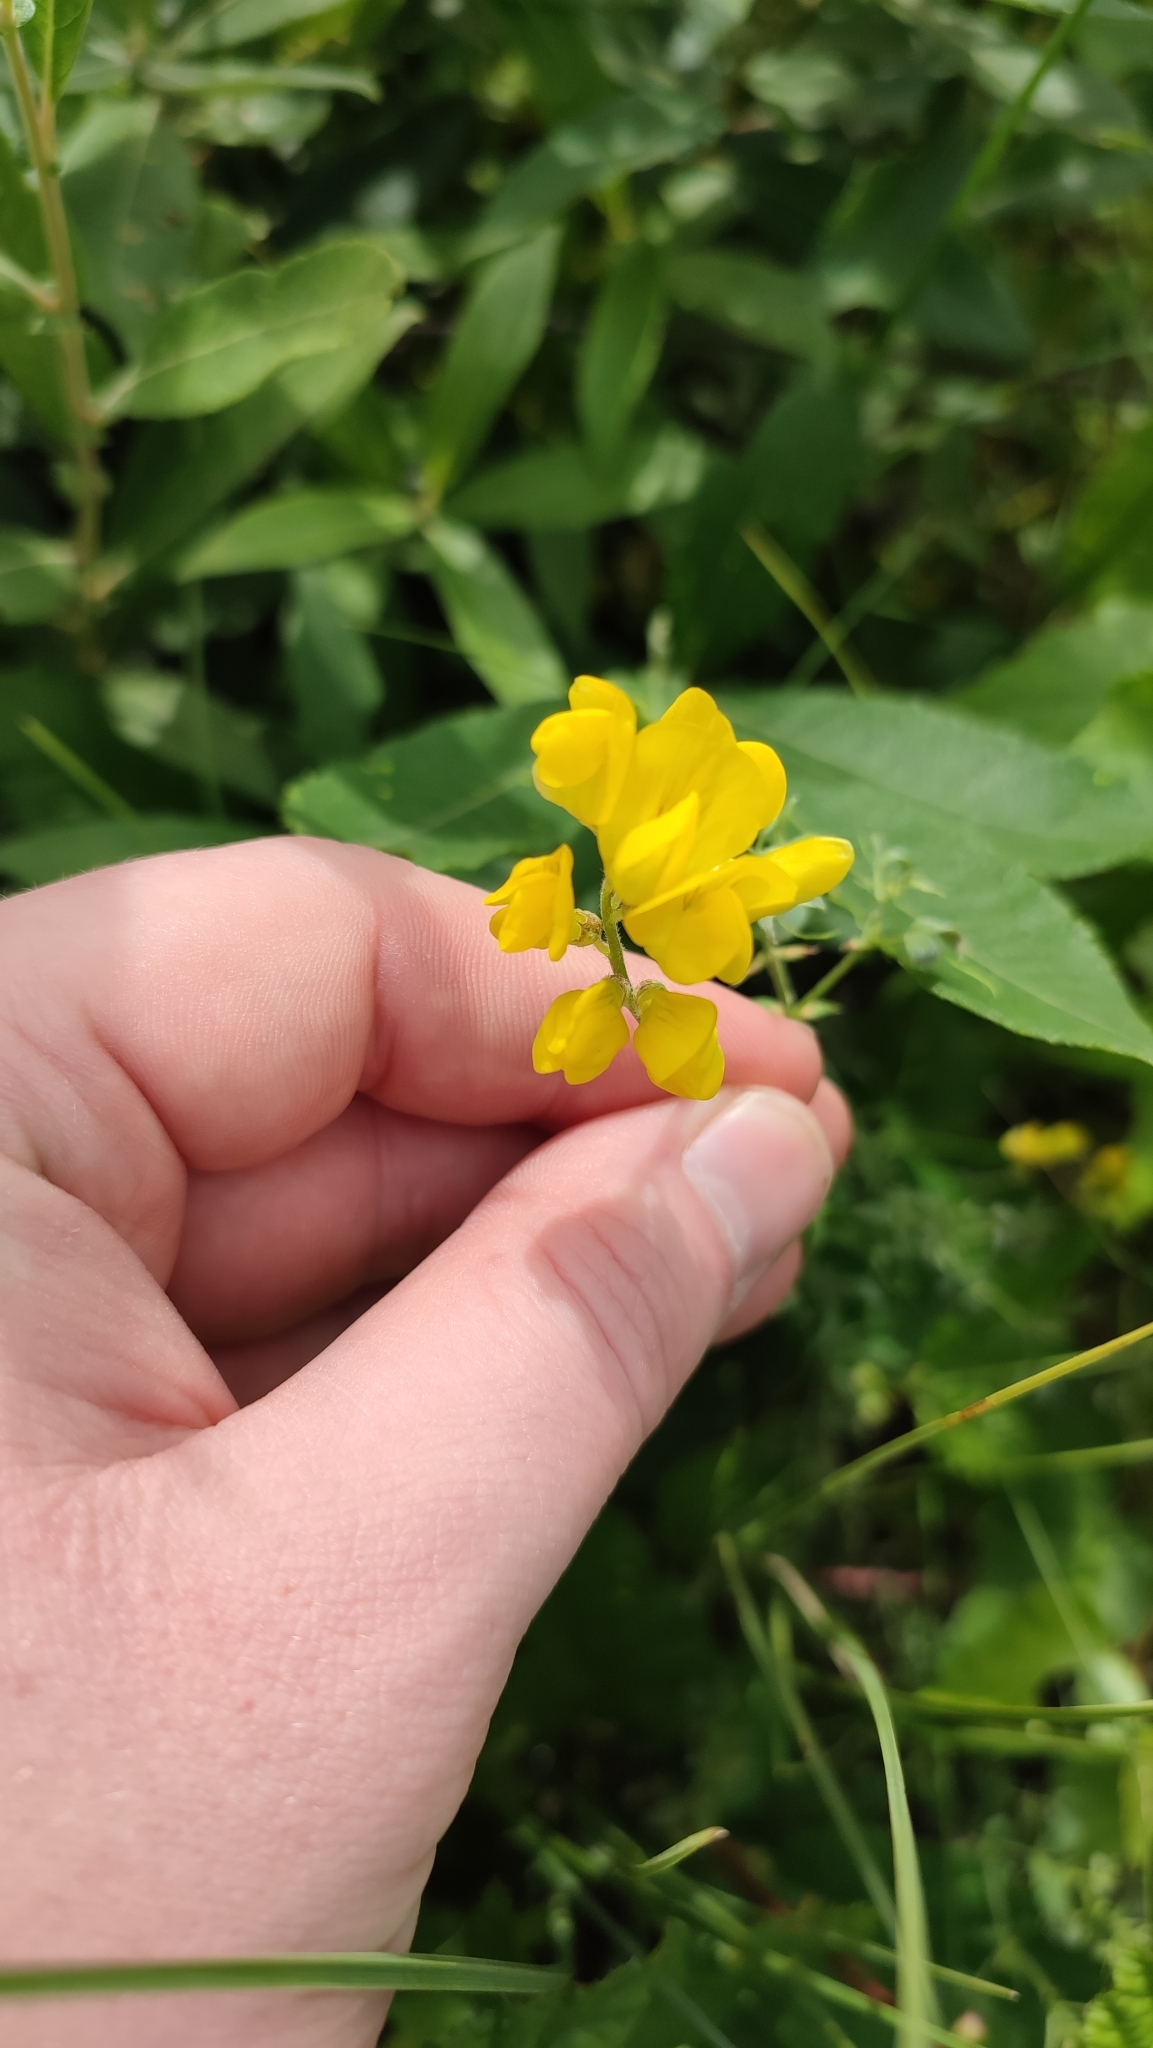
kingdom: Plantae
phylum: Tracheophyta
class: Magnoliopsida
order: Fabales
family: Fabaceae
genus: Lathyrus
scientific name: Lathyrus pratensis
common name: Meadow vetchling
